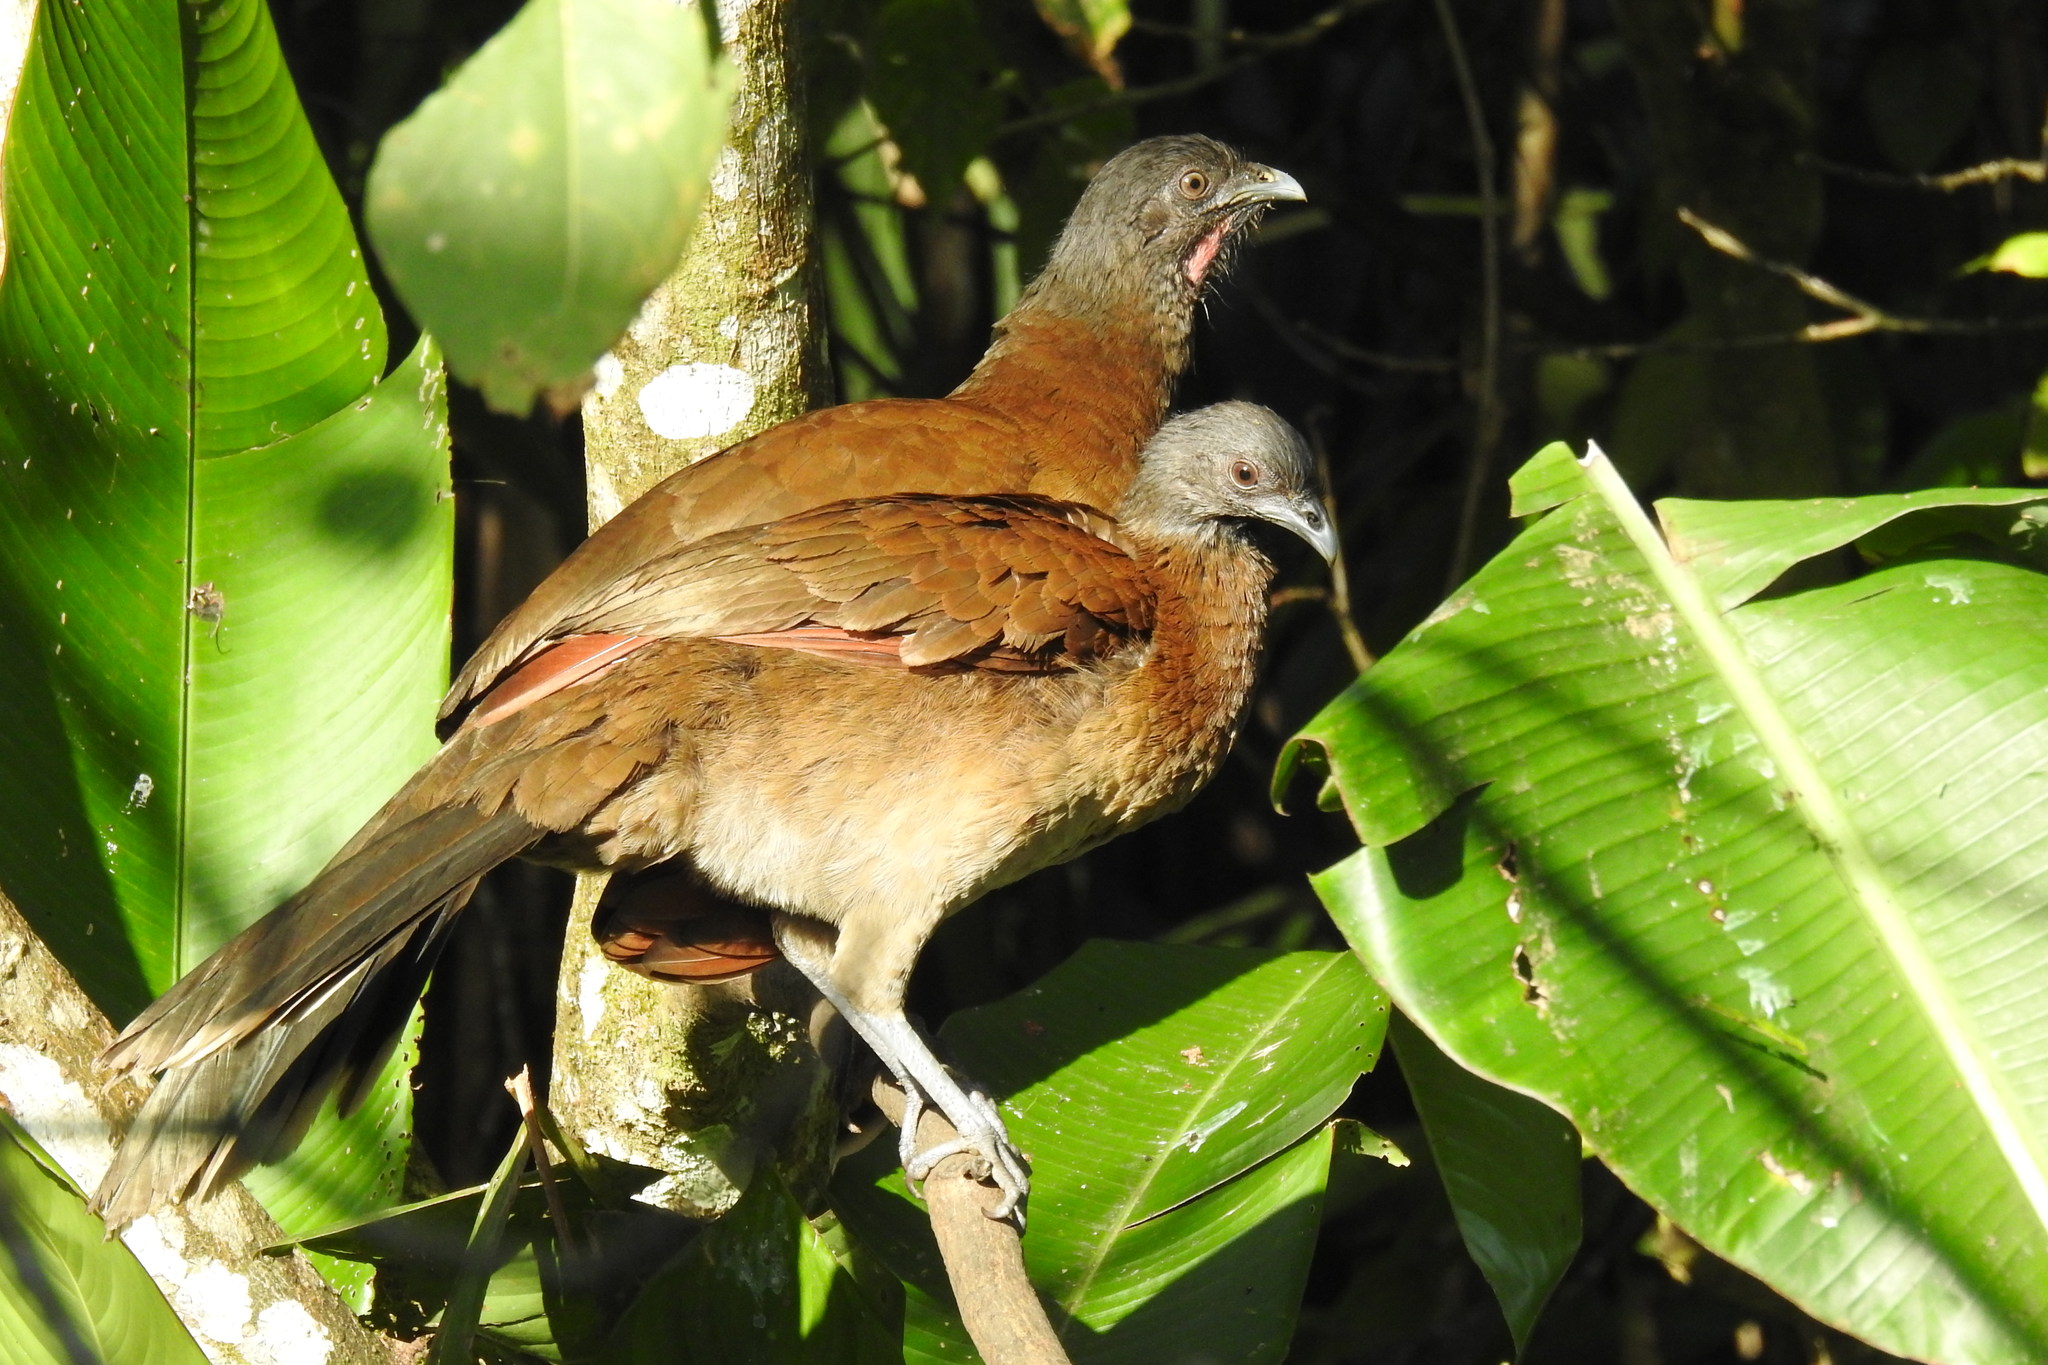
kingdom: Animalia
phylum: Chordata
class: Aves
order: Galliformes
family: Cracidae
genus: Ortalis
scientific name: Ortalis cinereiceps
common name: Grey-headed chachalaca
